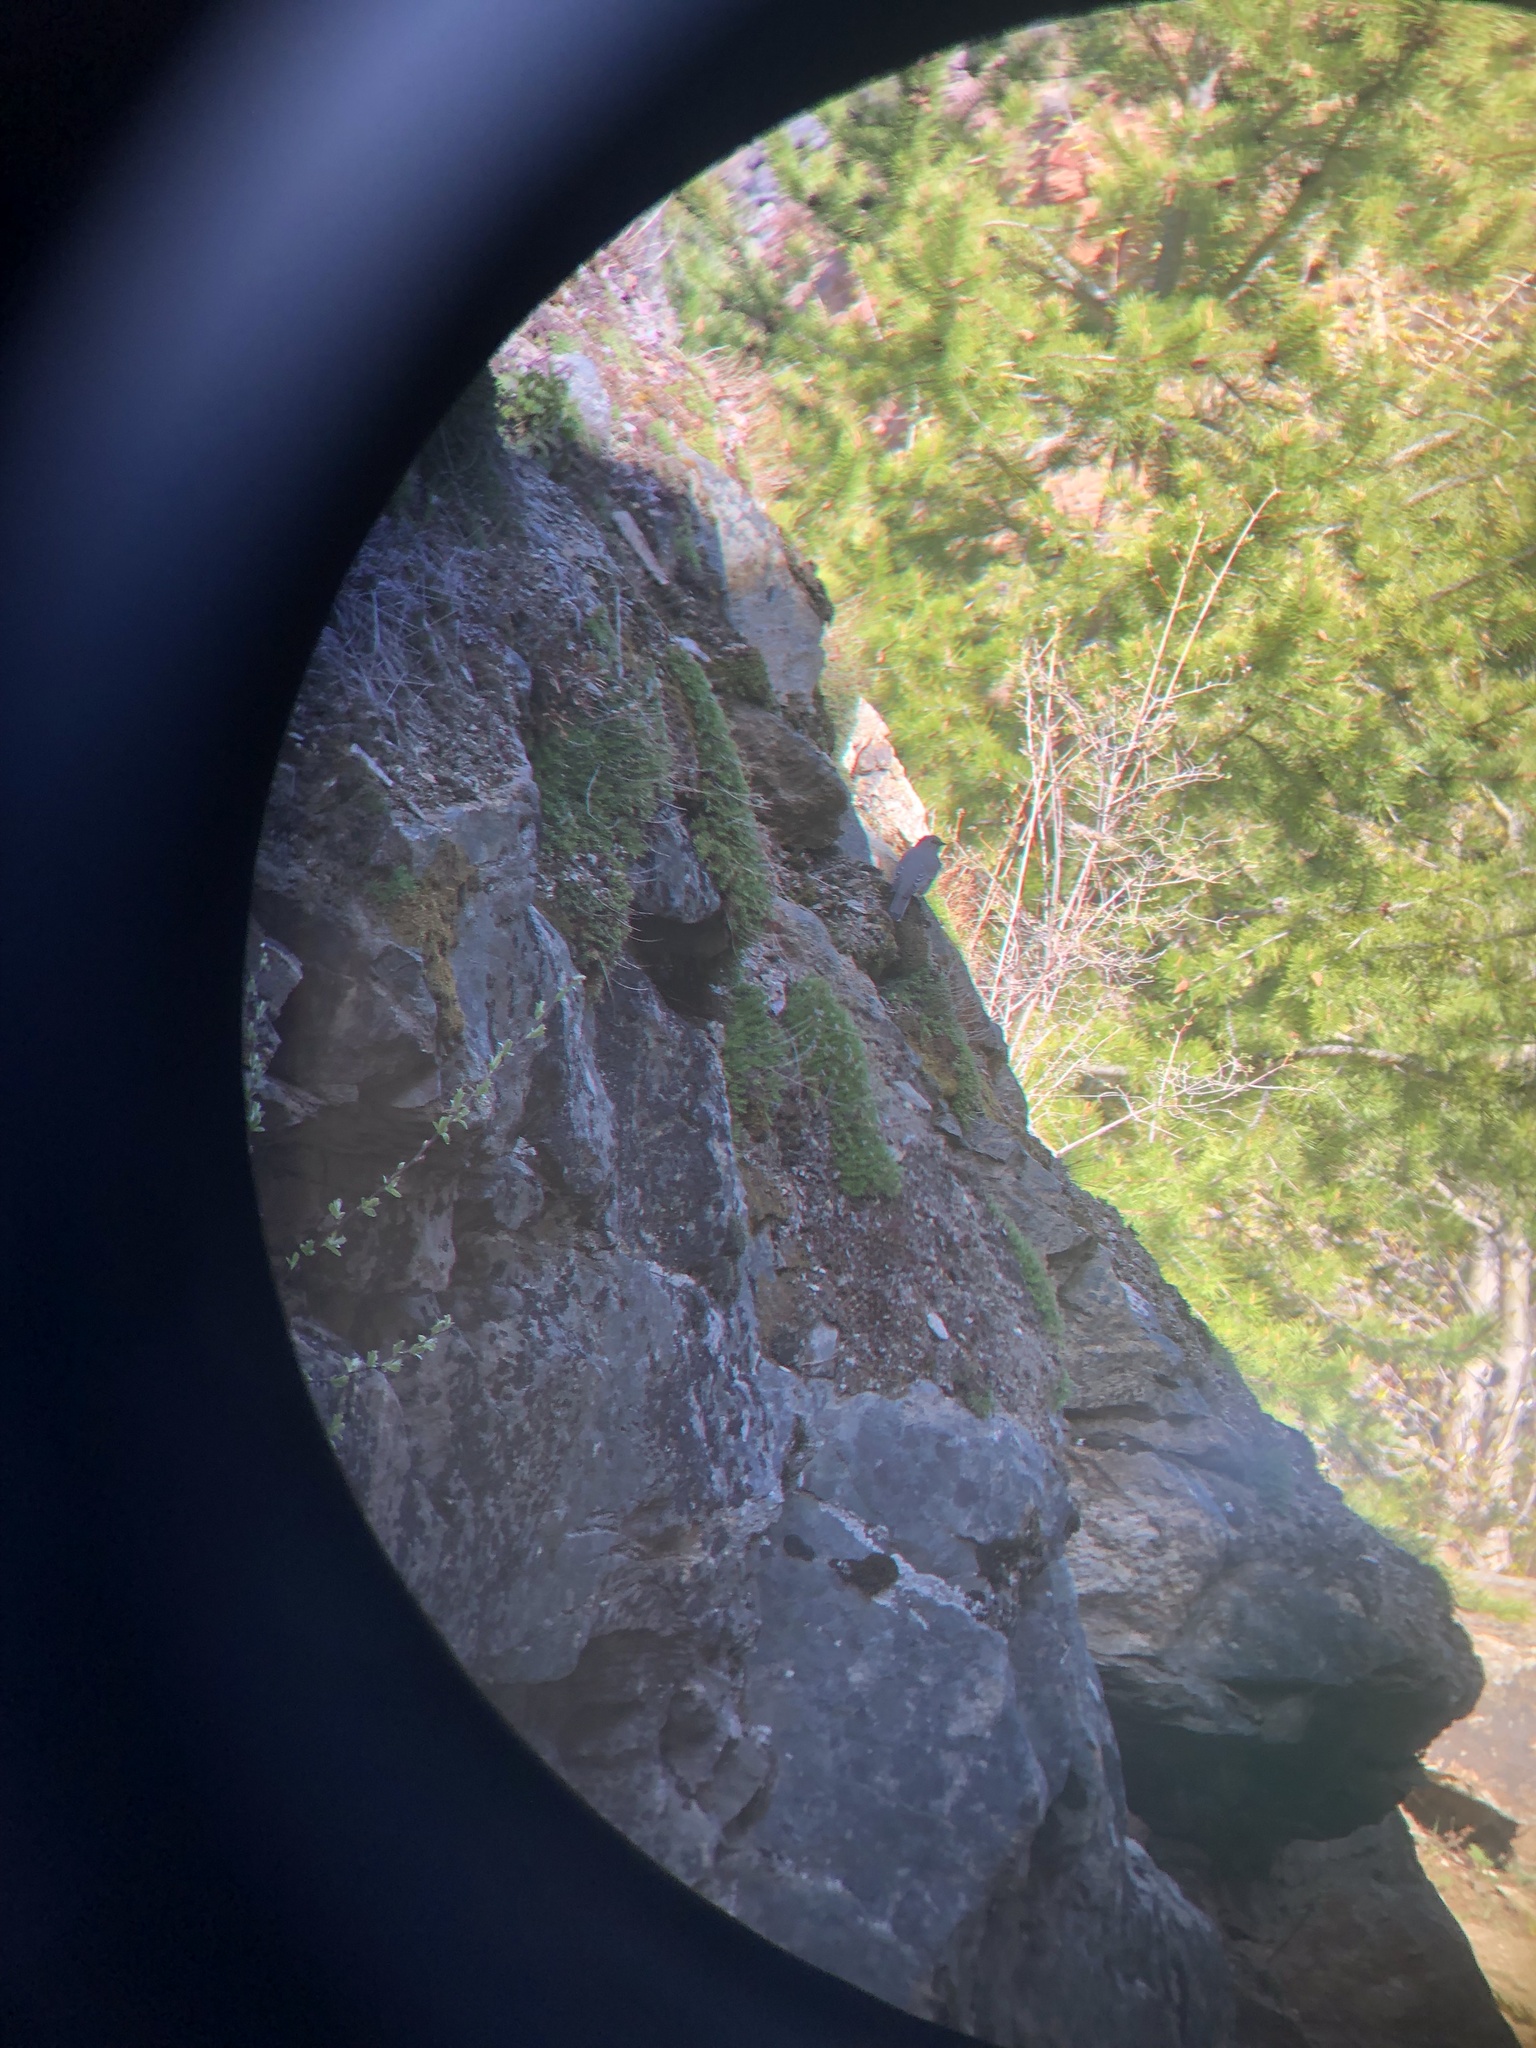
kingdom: Animalia
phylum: Chordata
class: Aves
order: Passeriformes
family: Turdidae
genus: Myadestes
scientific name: Myadestes townsendi
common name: Townsend's solitaire
